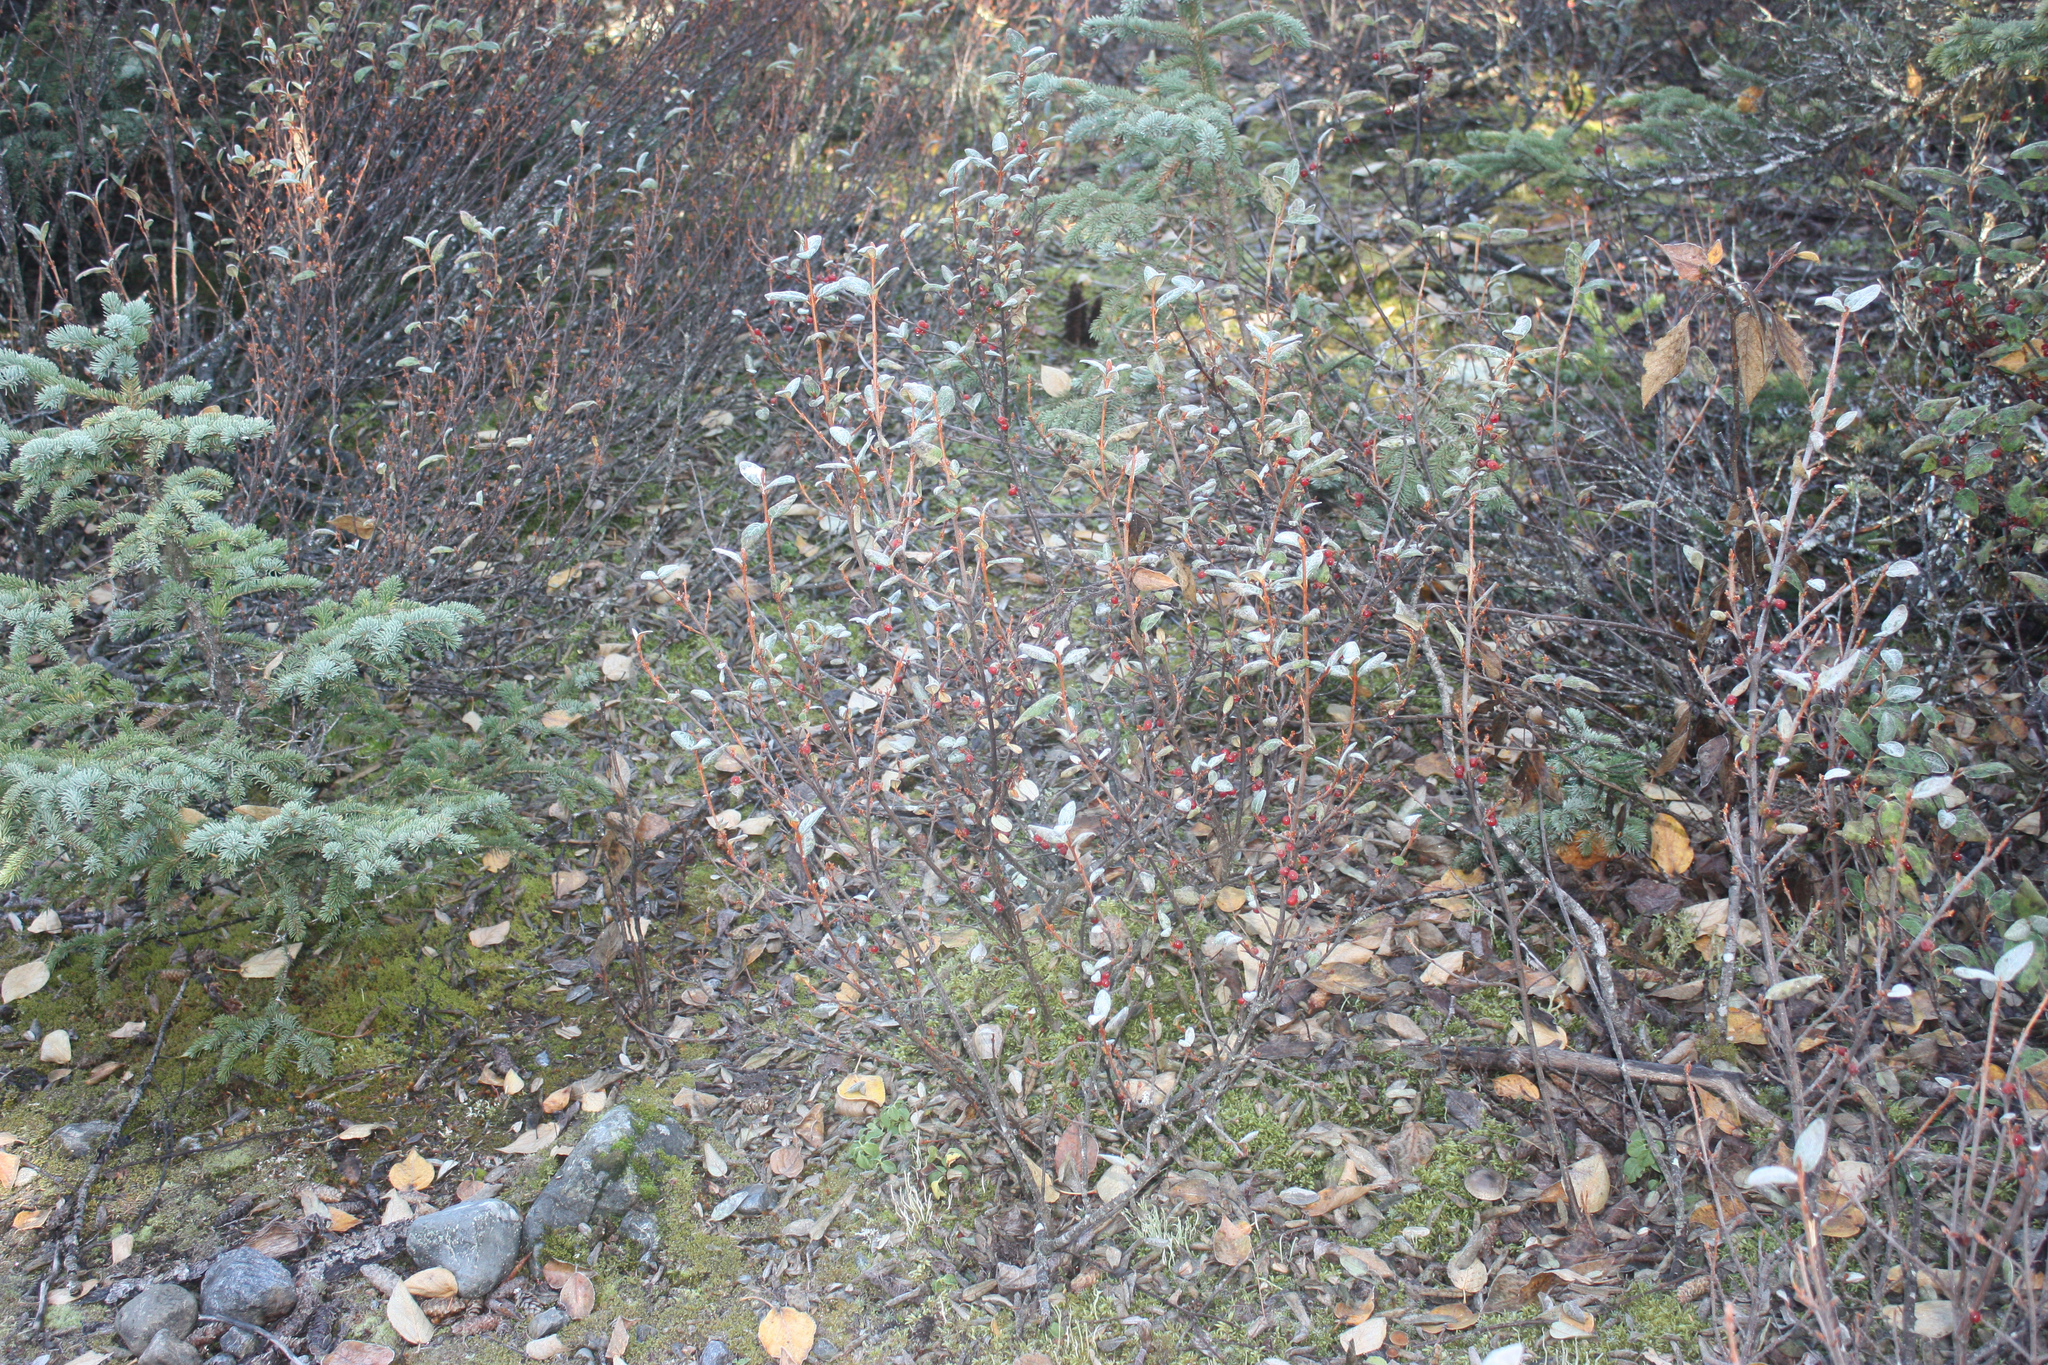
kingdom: Plantae
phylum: Tracheophyta
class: Magnoliopsida
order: Rosales
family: Elaeagnaceae
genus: Shepherdia
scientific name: Shepherdia canadensis
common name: Soapberry
